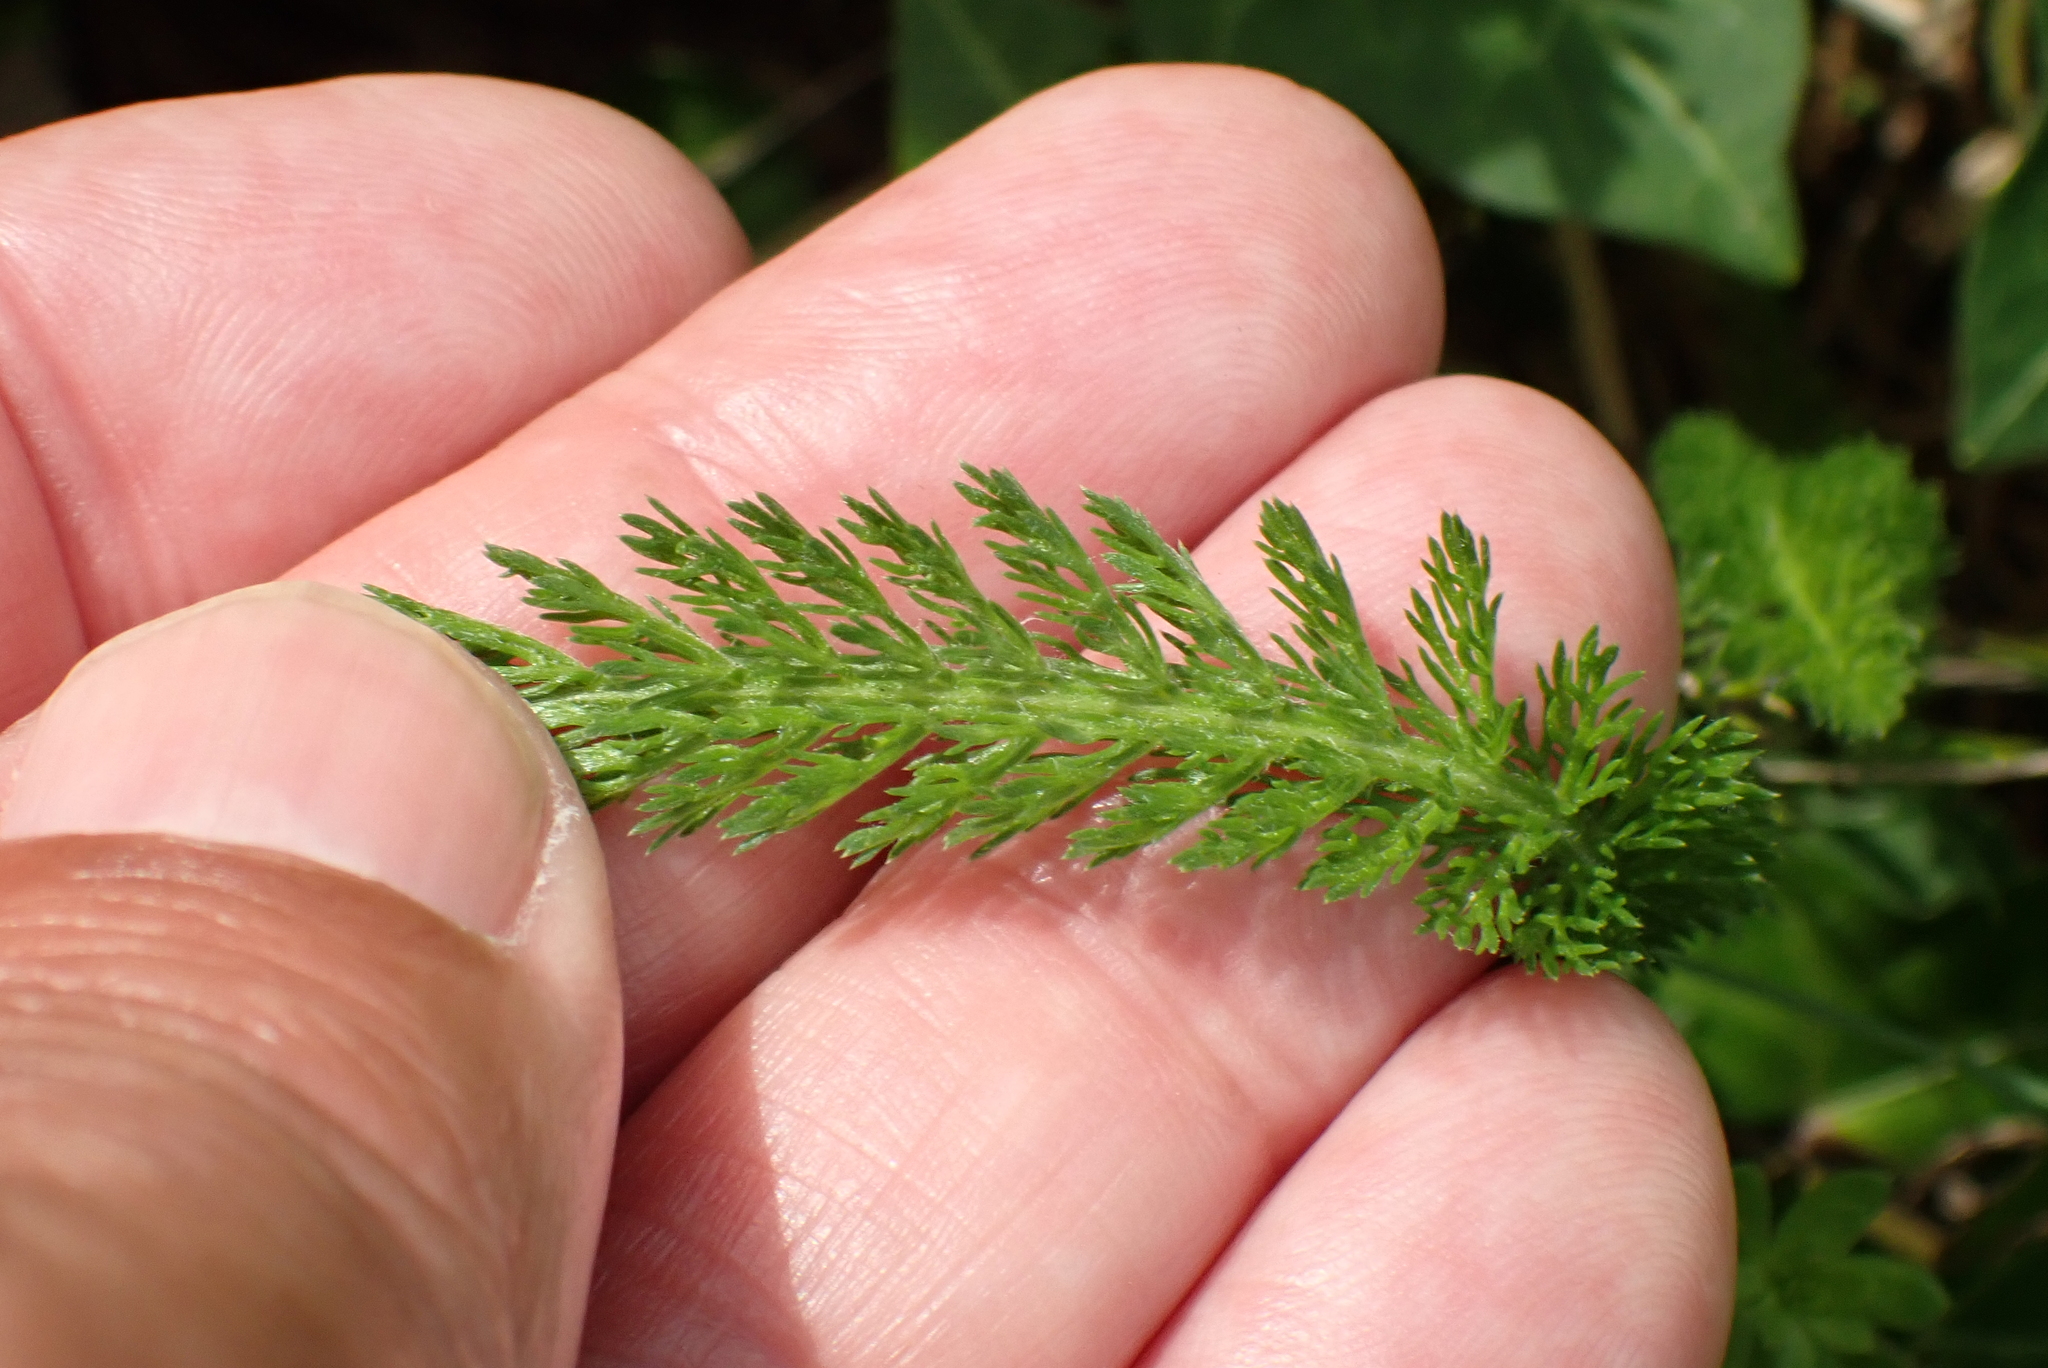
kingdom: Plantae
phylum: Tracheophyta
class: Magnoliopsida
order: Asterales
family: Asteraceae
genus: Achillea
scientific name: Achillea millefolium
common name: Yarrow
